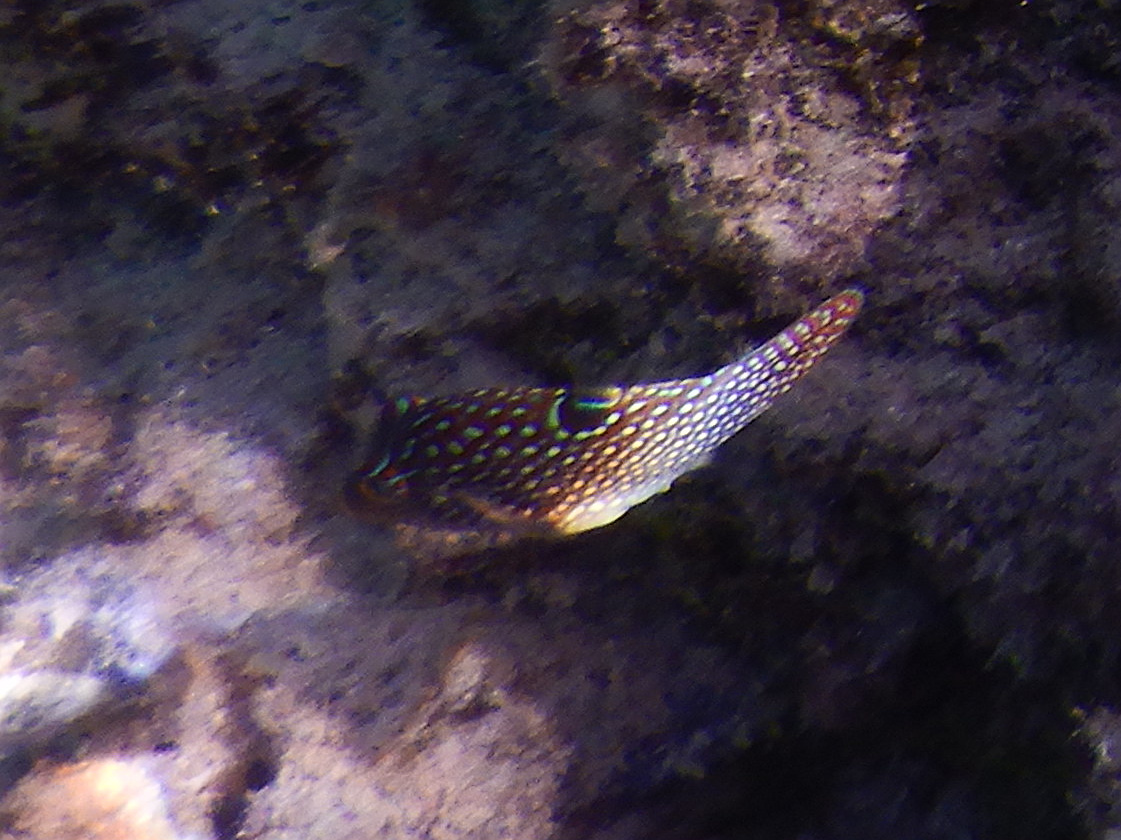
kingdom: Animalia
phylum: Chordata
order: Tetraodontiformes
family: Tetraodontidae
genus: Canthigaster
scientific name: Canthigaster solandri
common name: False-eye toby
